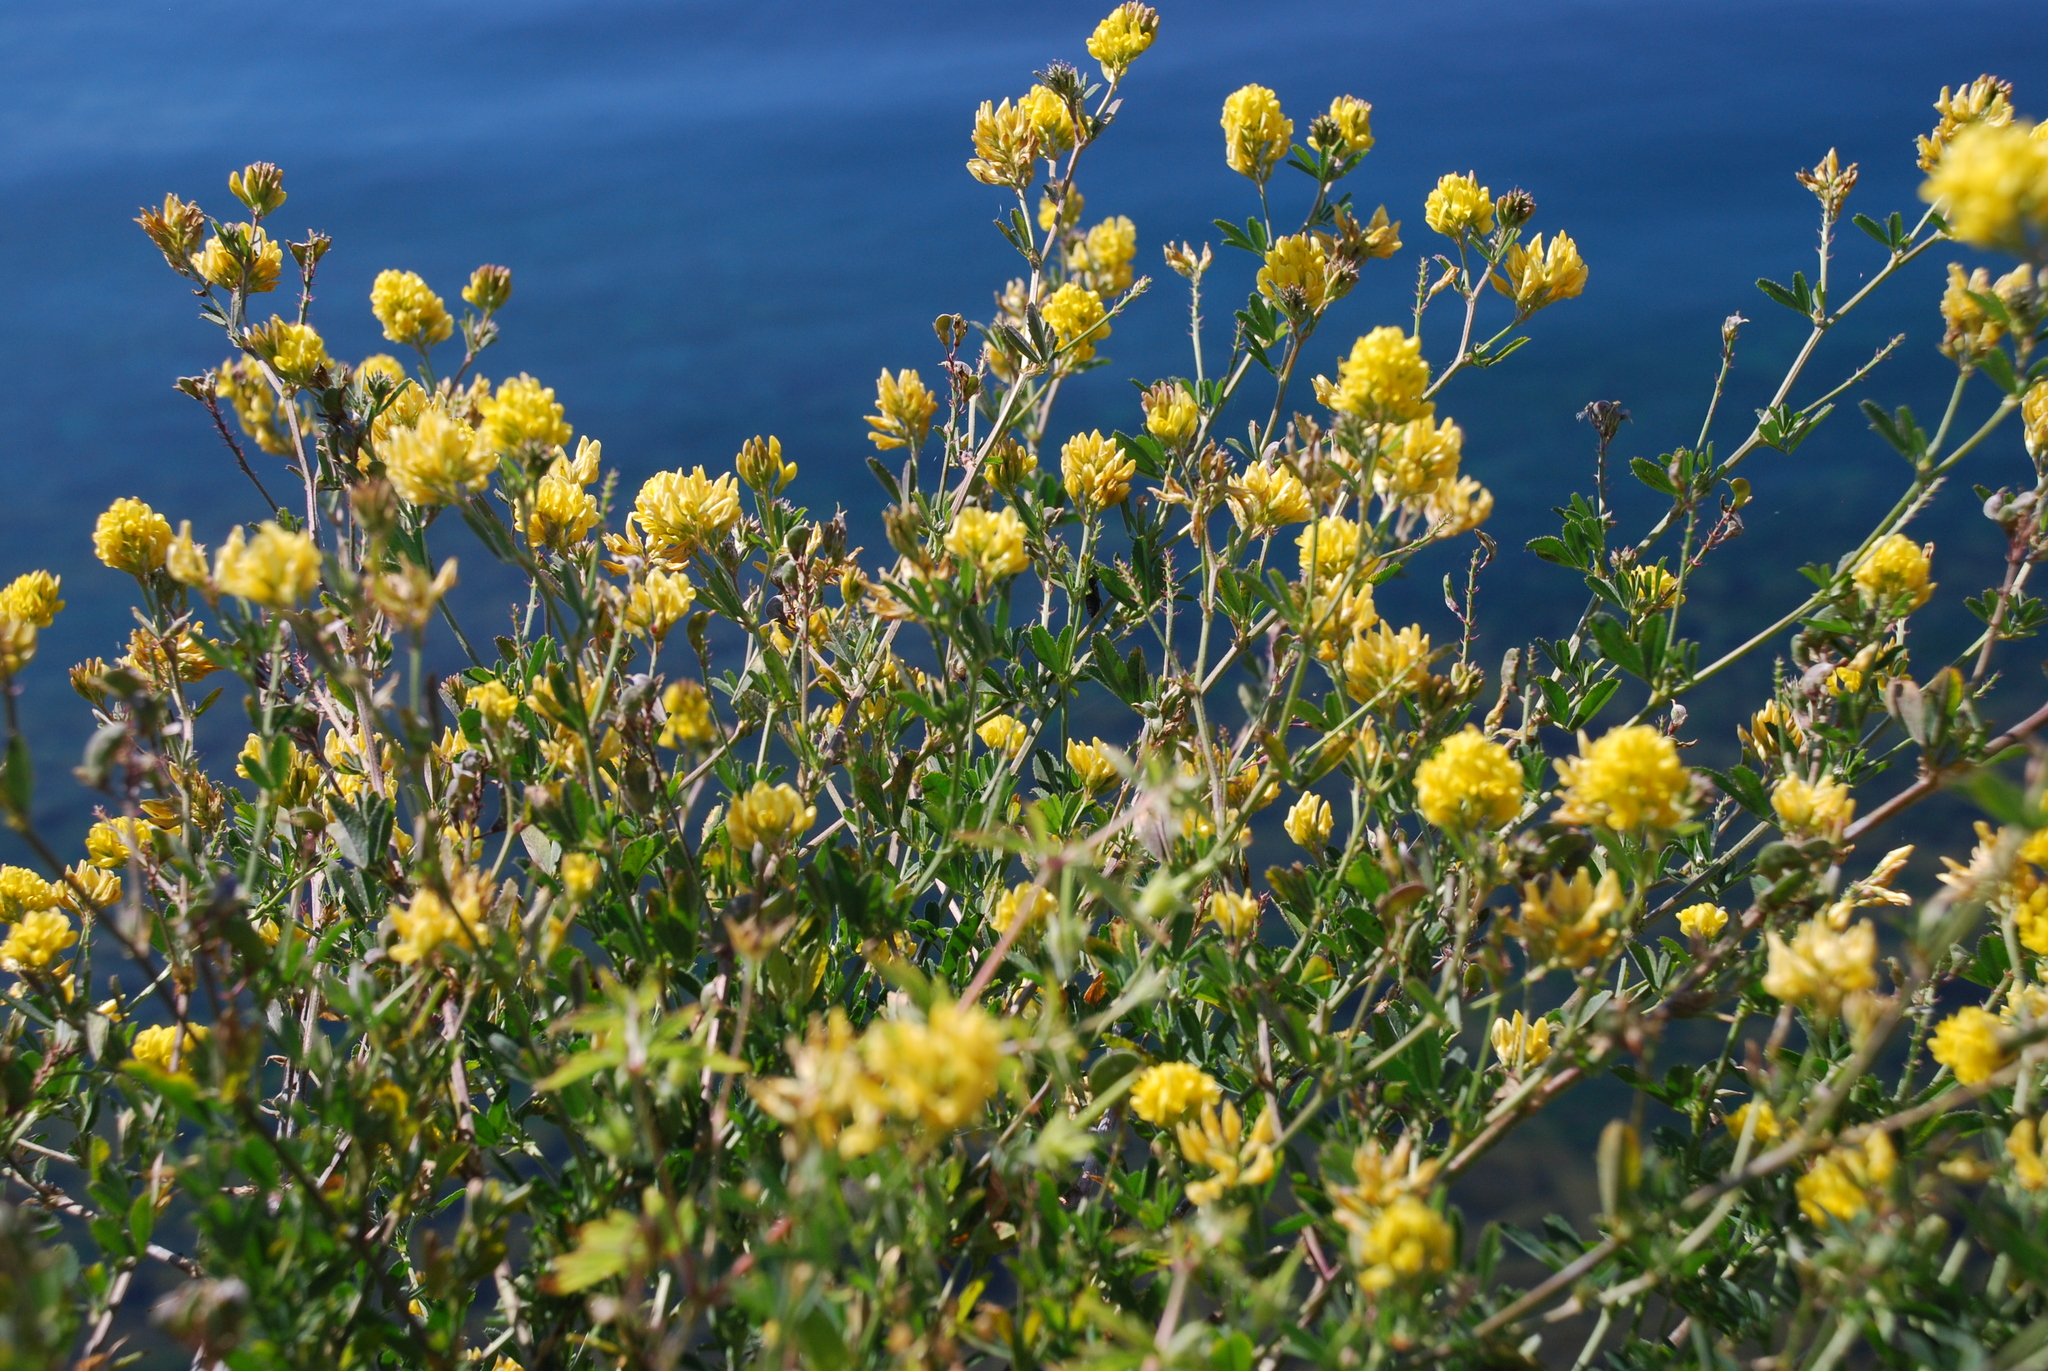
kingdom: Plantae
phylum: Tracheophyta
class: Magnoliopsida
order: Fabales
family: Fabaceae
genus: Medicago
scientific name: Medicago falcata
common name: Sickle medick
